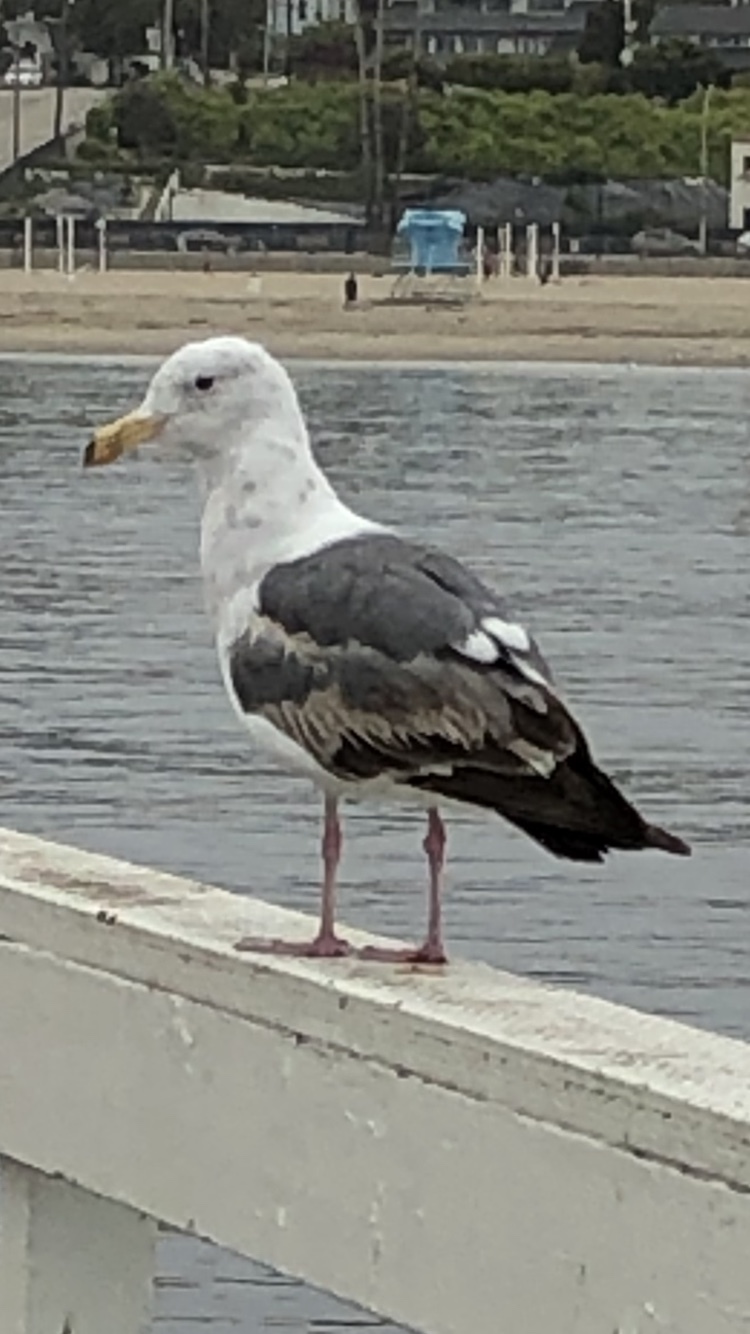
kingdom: Animalia
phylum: Chordata
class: Aves
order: Charadriiformes
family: Laridae
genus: Larus
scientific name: Larus occidentalis
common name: Western gull
